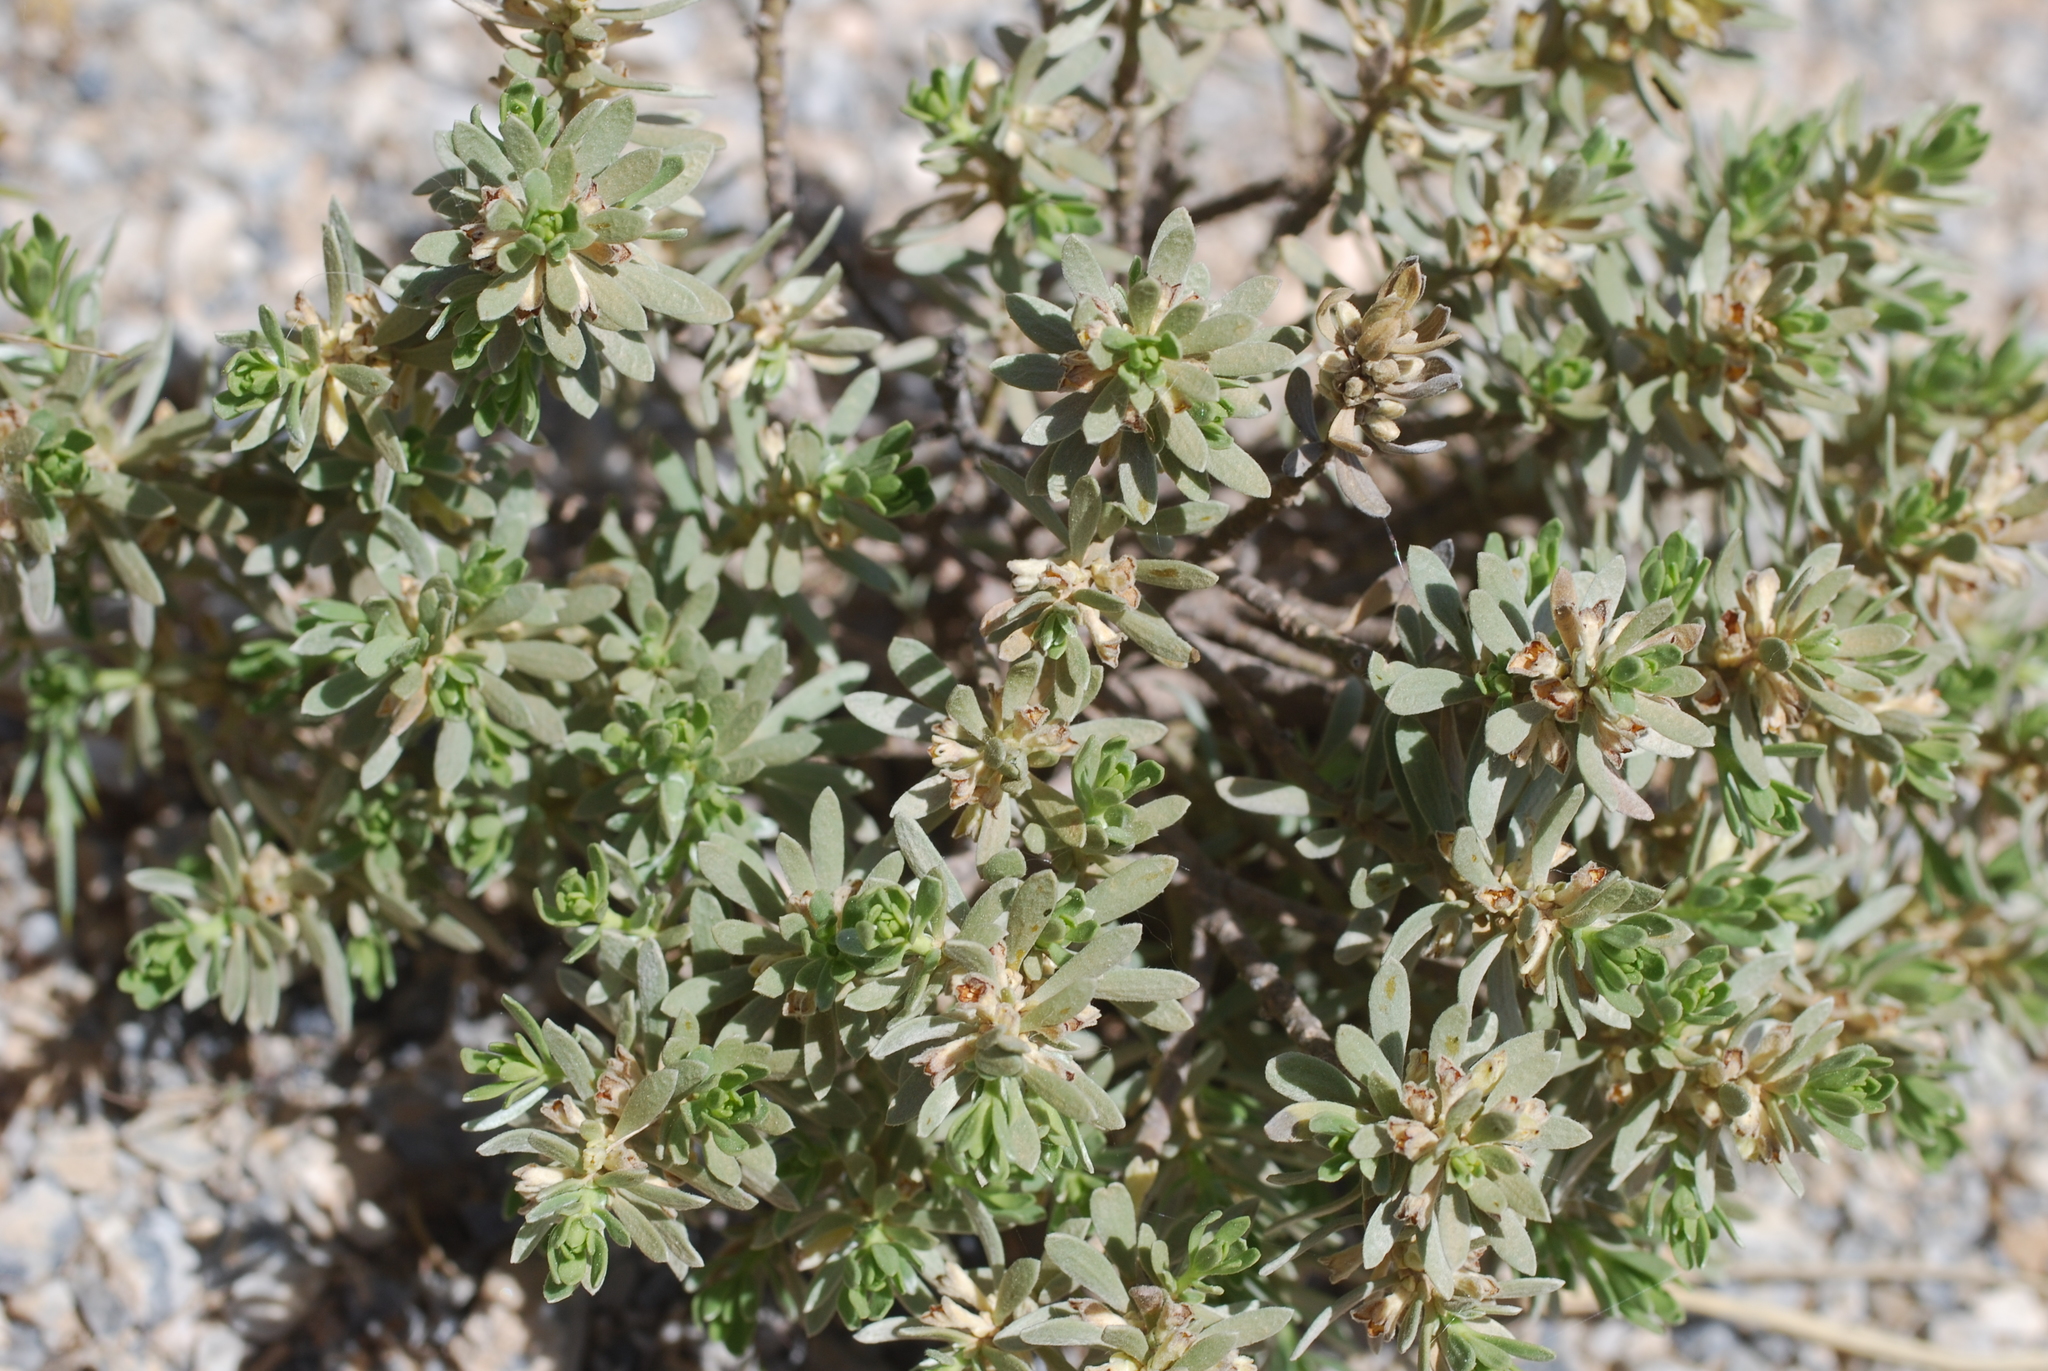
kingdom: Plantae
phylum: Tracheophyta
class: Magnoliopsida
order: Malvales
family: Thymelaeaceae
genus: Thymelaea
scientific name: Thymelaea tartonraira
